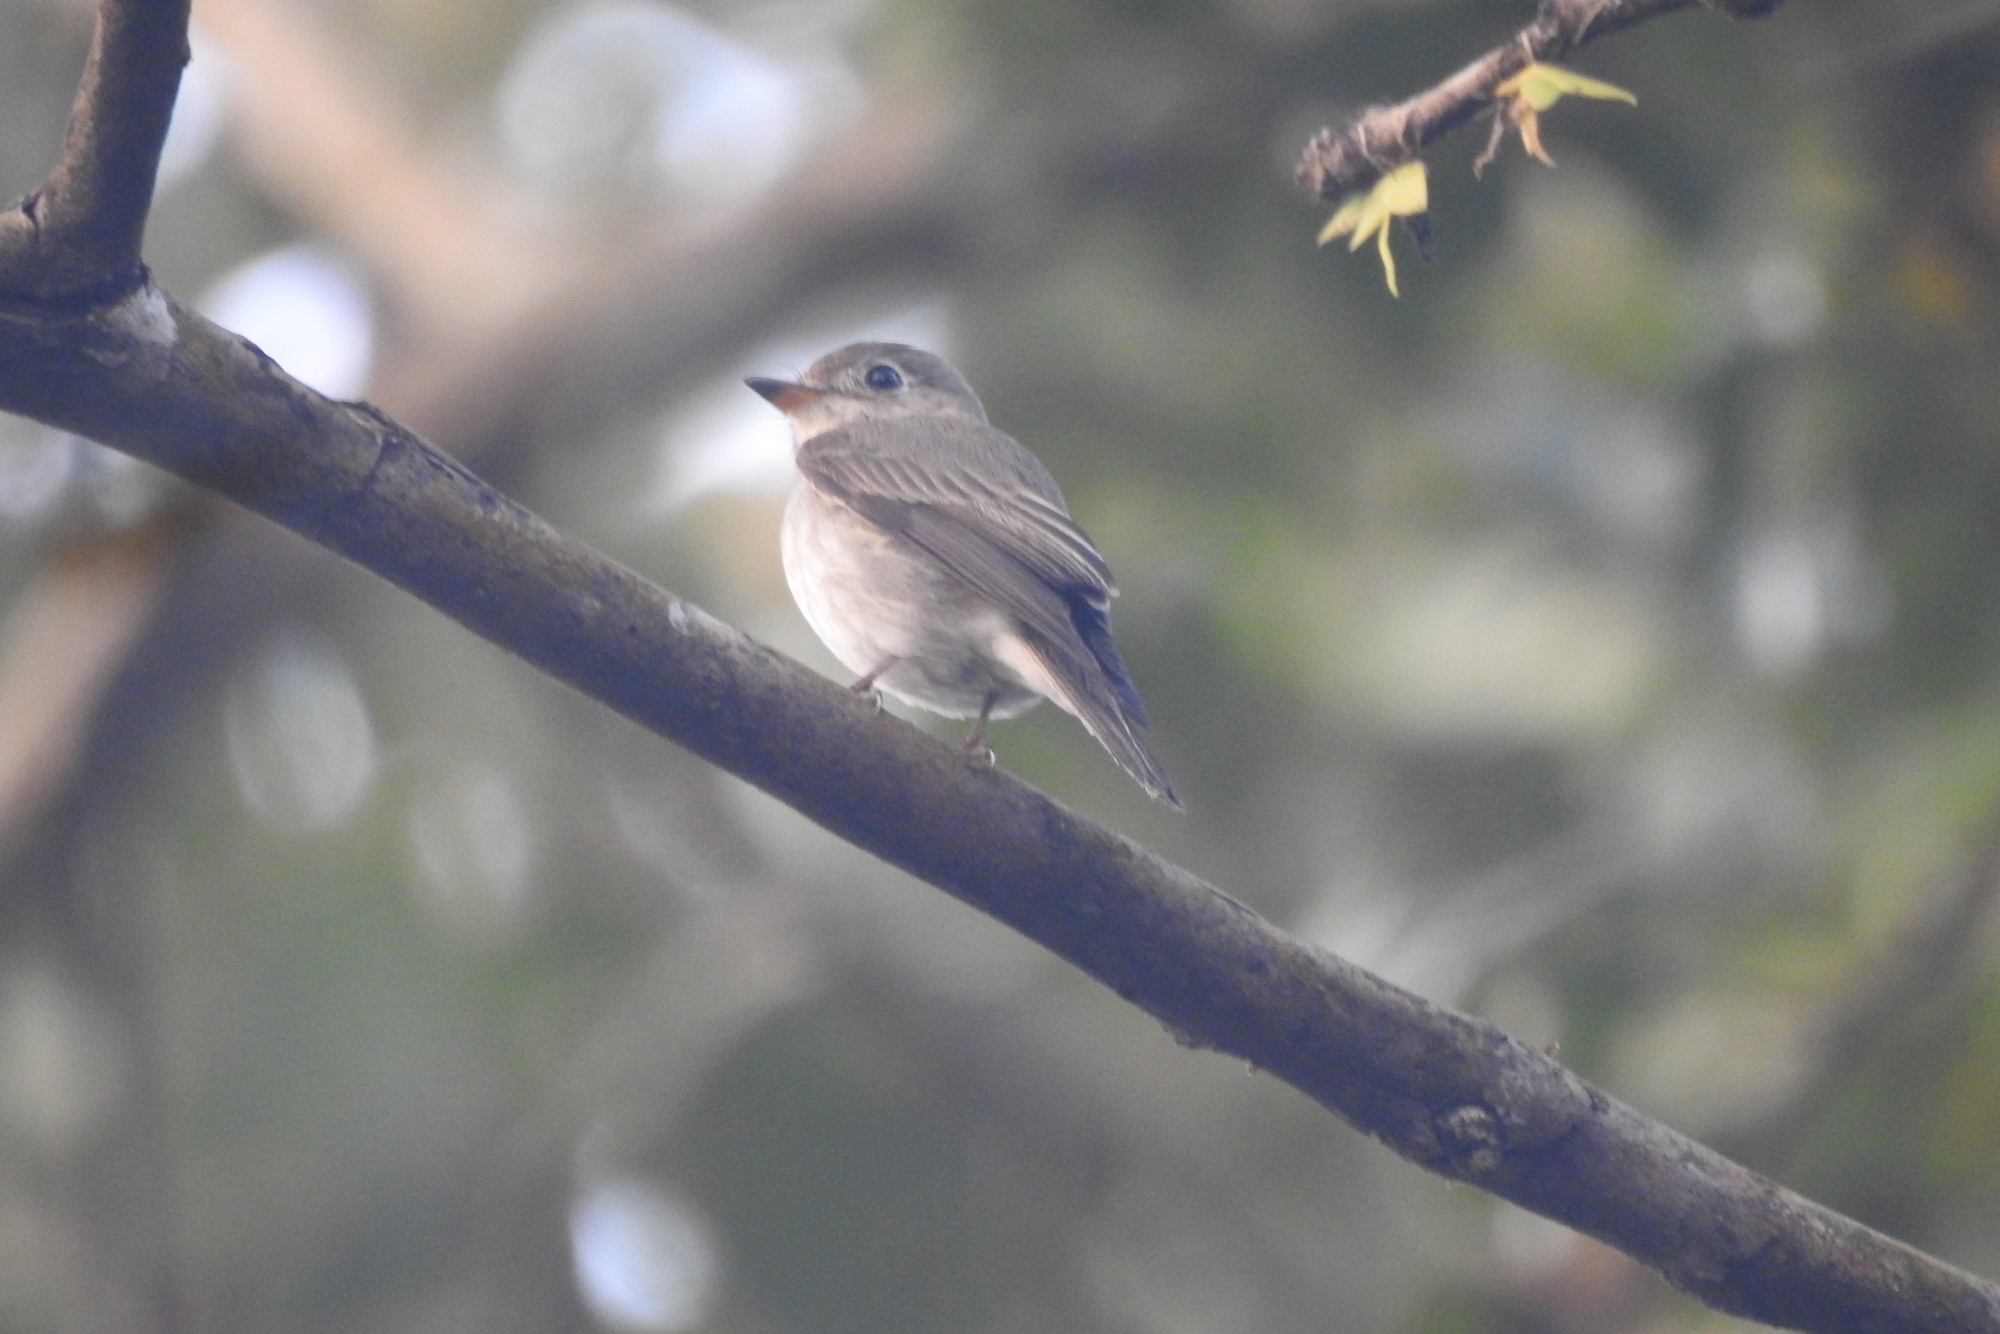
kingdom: Animalia
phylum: Chordata
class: Aves
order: Passeriformes
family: Muscicapidae
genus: Muscicapa
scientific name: Muscicapa latirostris
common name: Asian brown flycatcher
